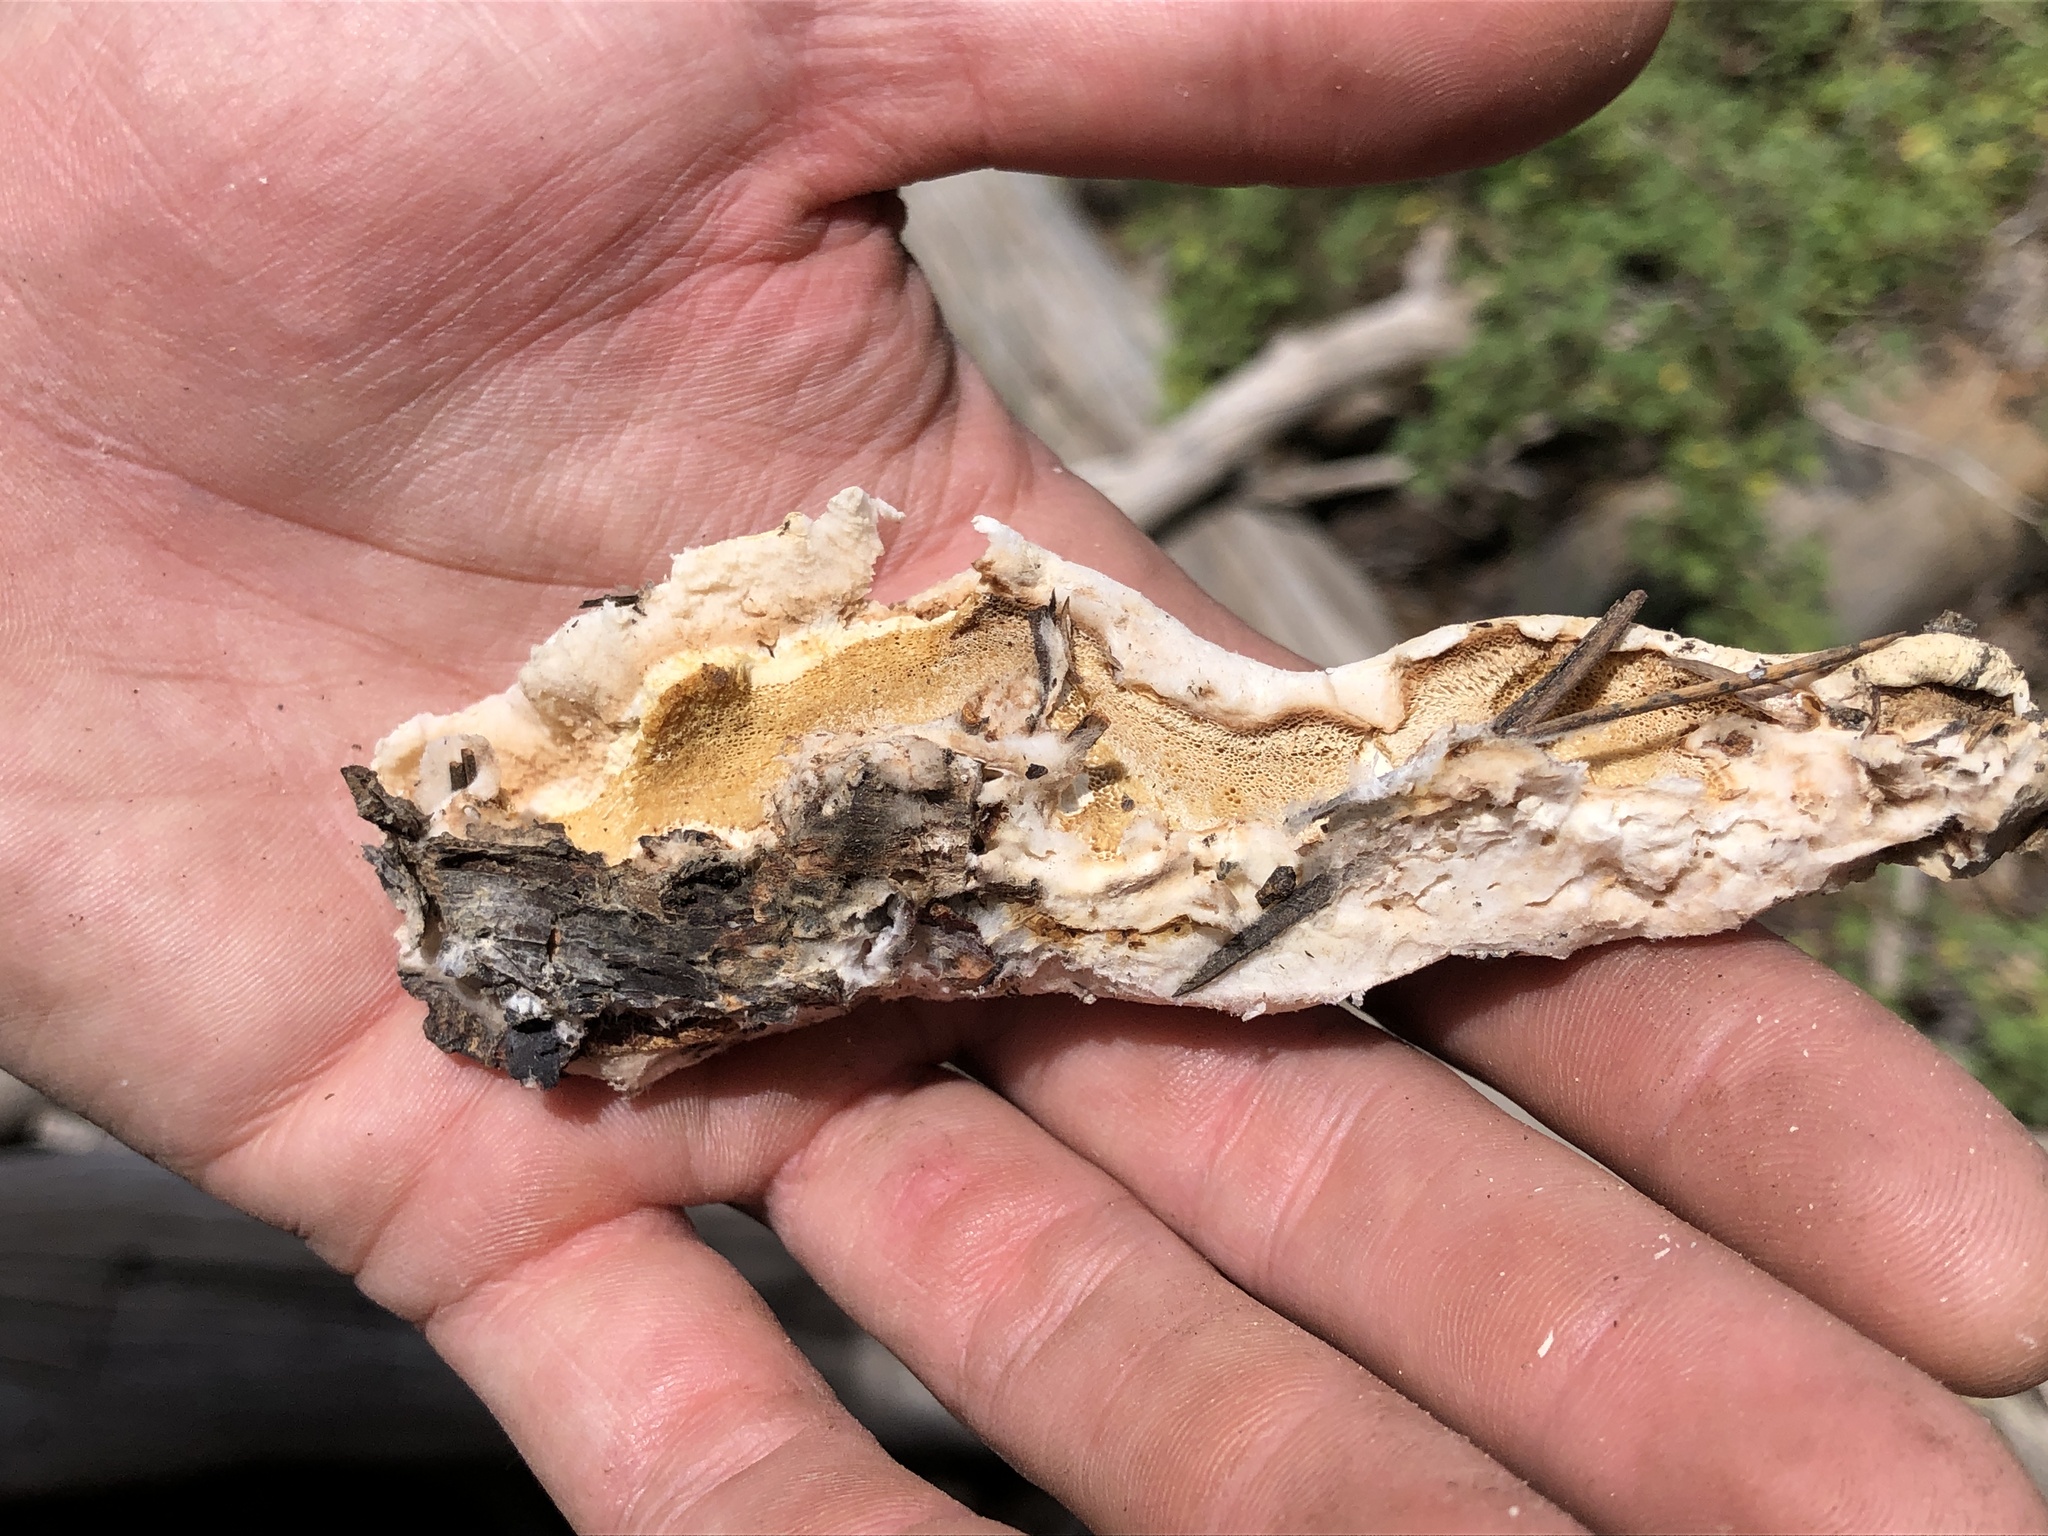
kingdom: Fungi
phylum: Basidiomycota
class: Agaricomycetes
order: Polyporales
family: Incrustoporiaceae
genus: Tyromyces
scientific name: Tyromyces leucospongius
